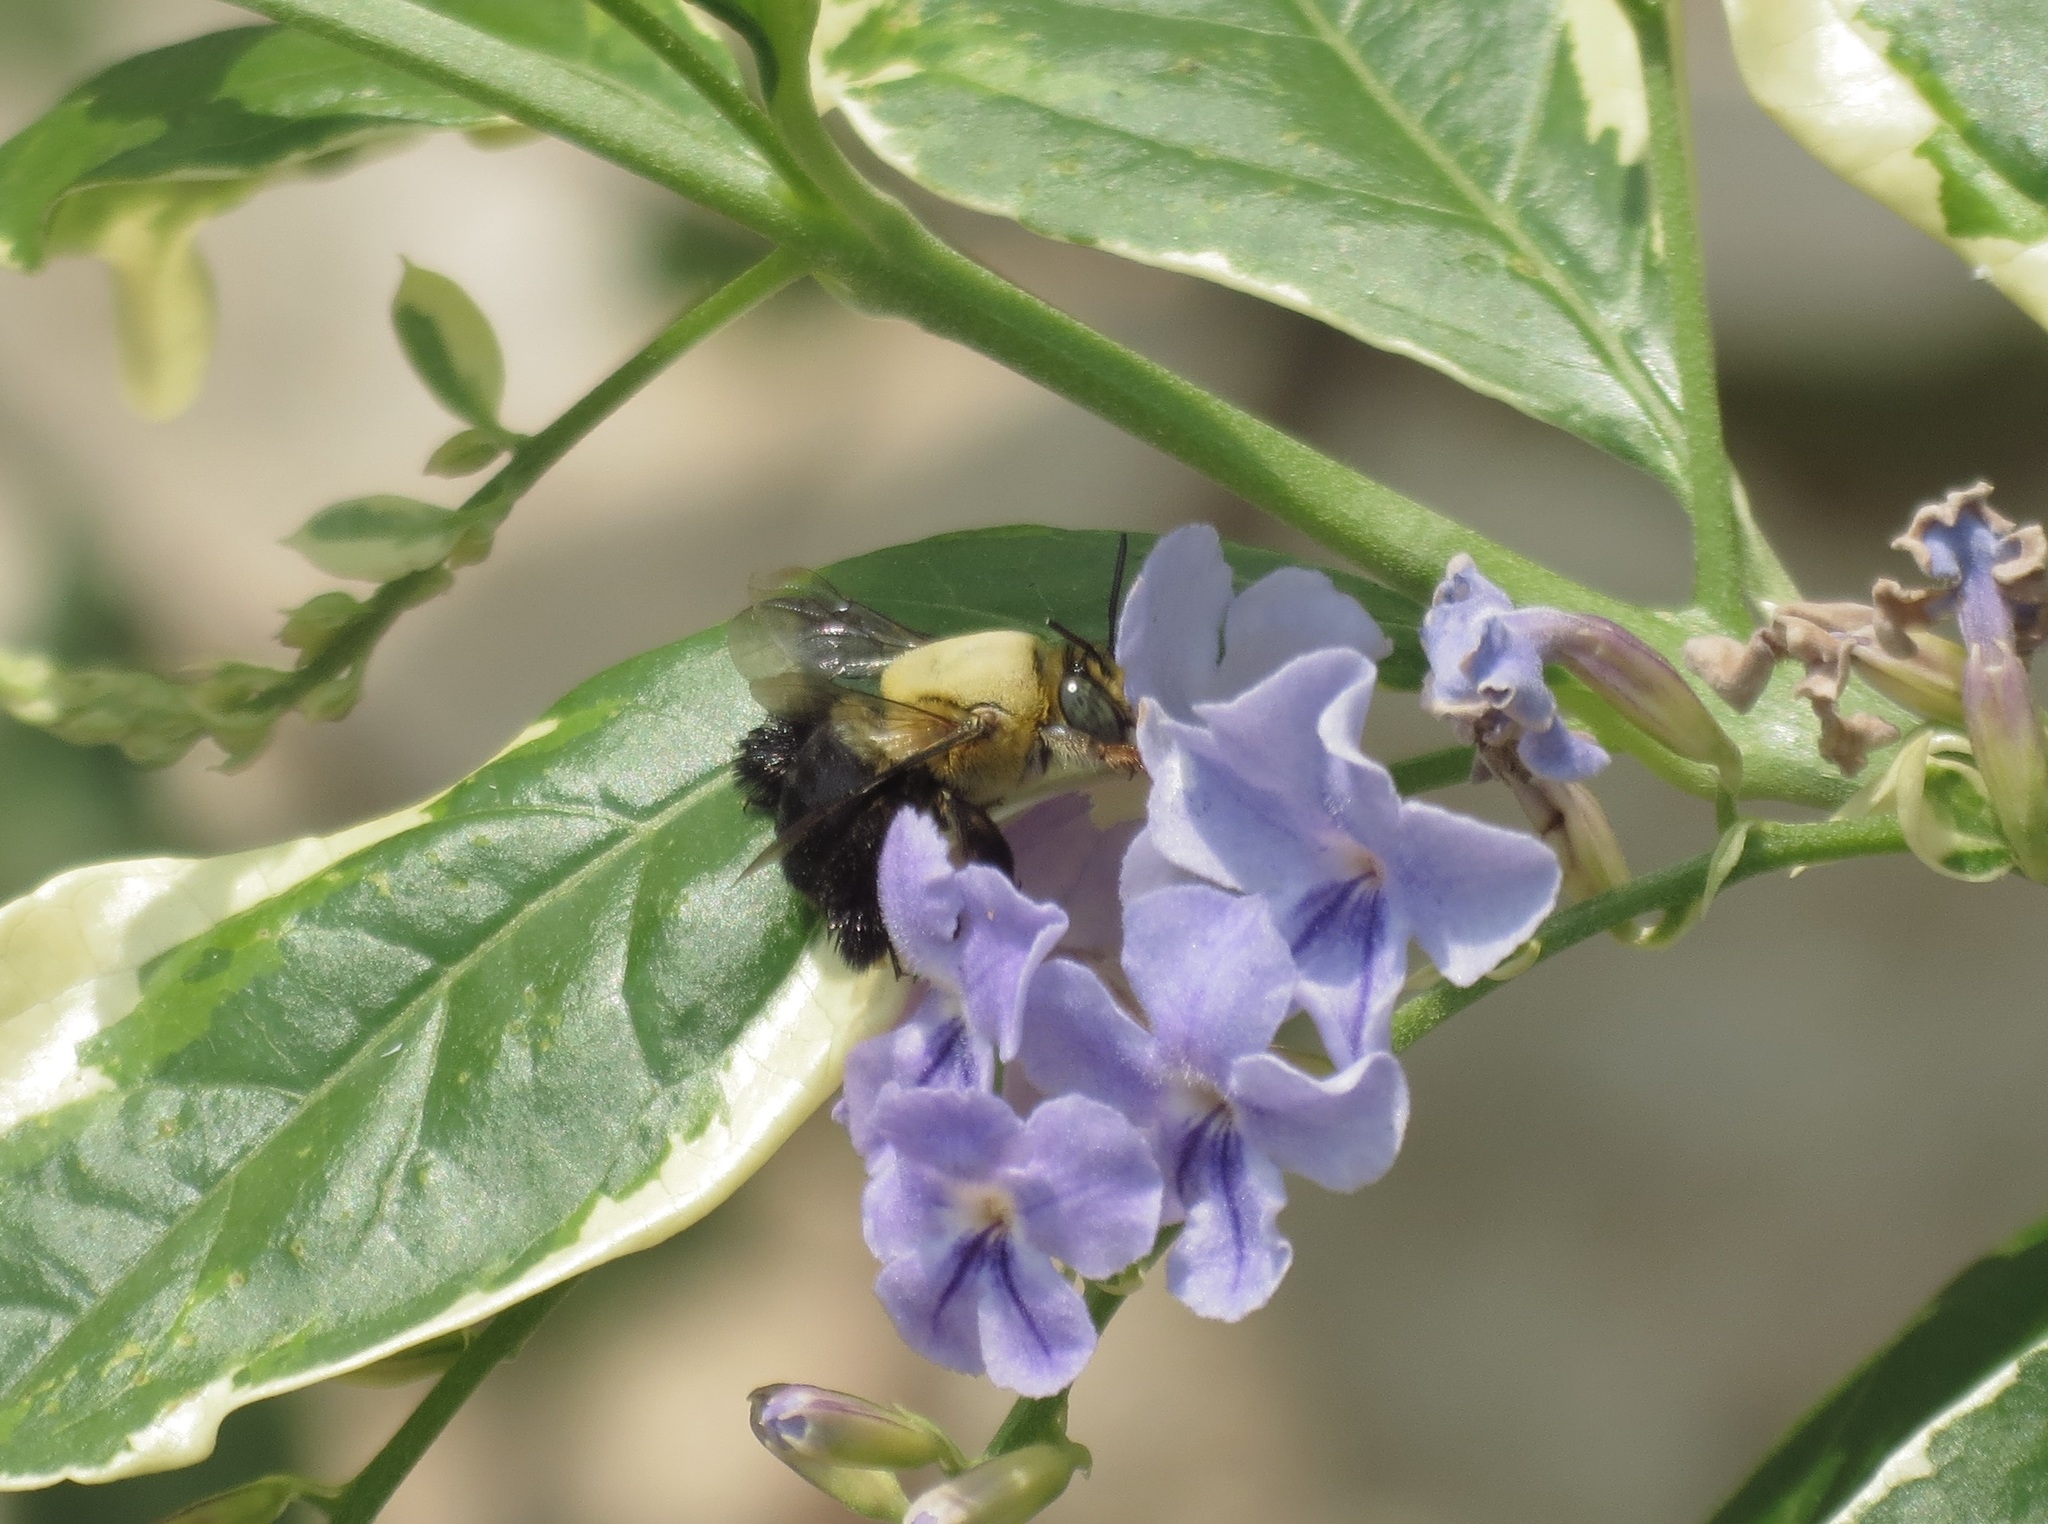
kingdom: Animalia
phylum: Arthropoda
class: Insecta
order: Hymenoptera
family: Apidae
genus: Centris
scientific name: Centris nitida
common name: Oil-collecting bee
